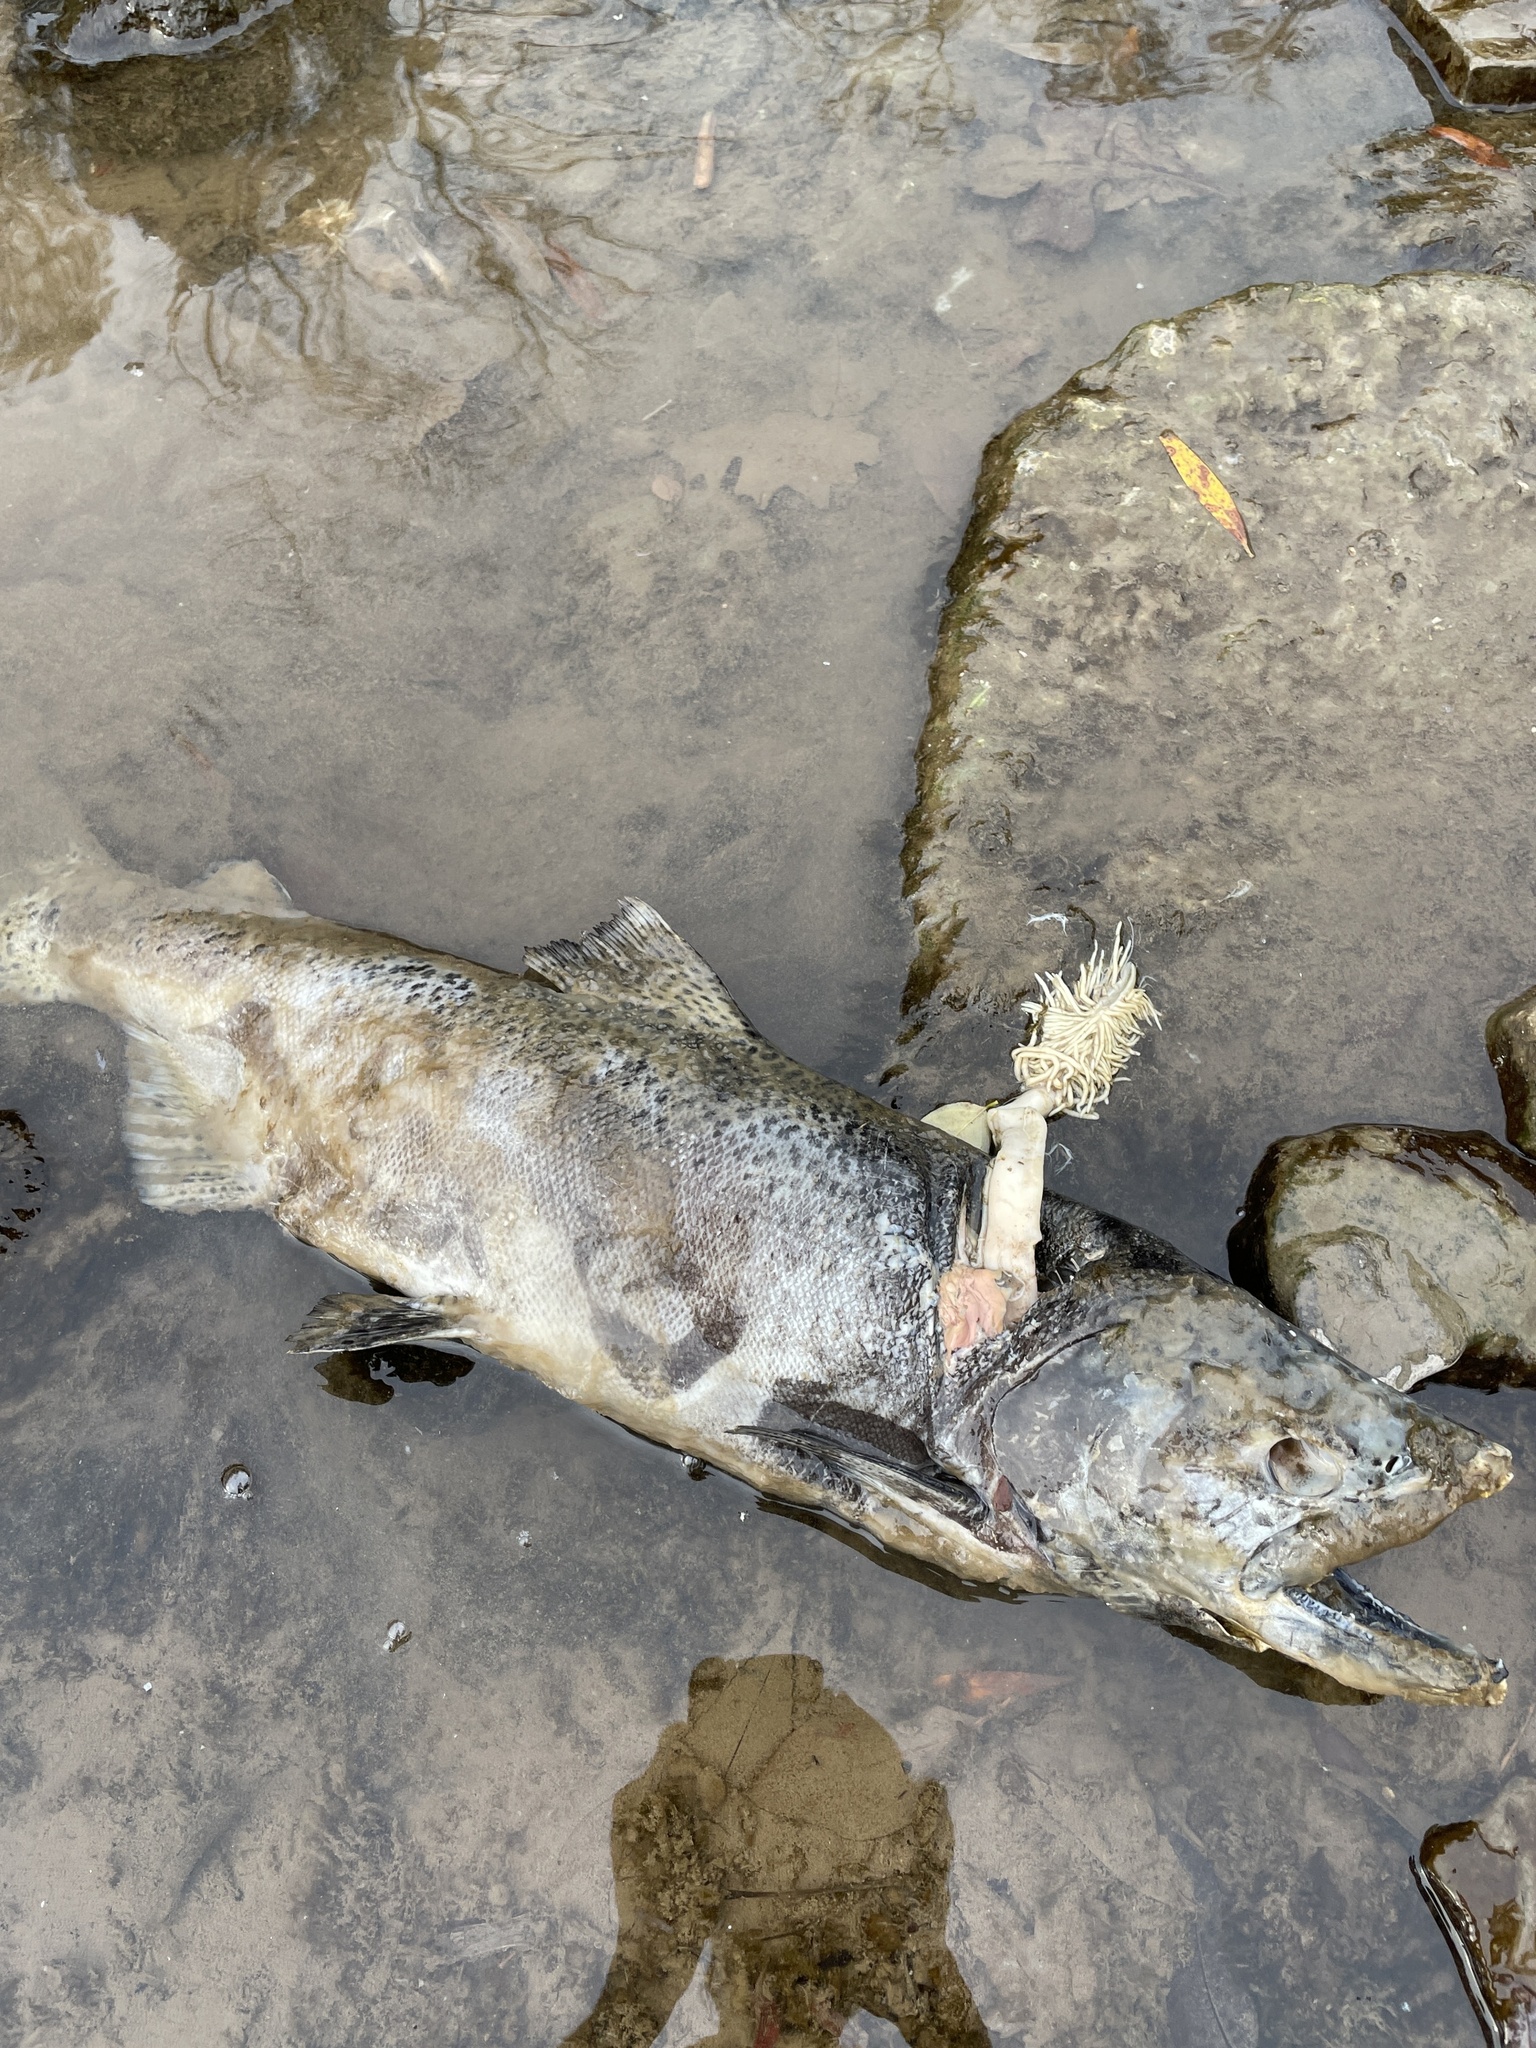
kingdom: Animalia
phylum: Chordata
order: Salmoniformes
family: Salmonidae
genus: Oncorhynchus
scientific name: Oncorhynchus tshawytscha
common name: Chinook salmon
